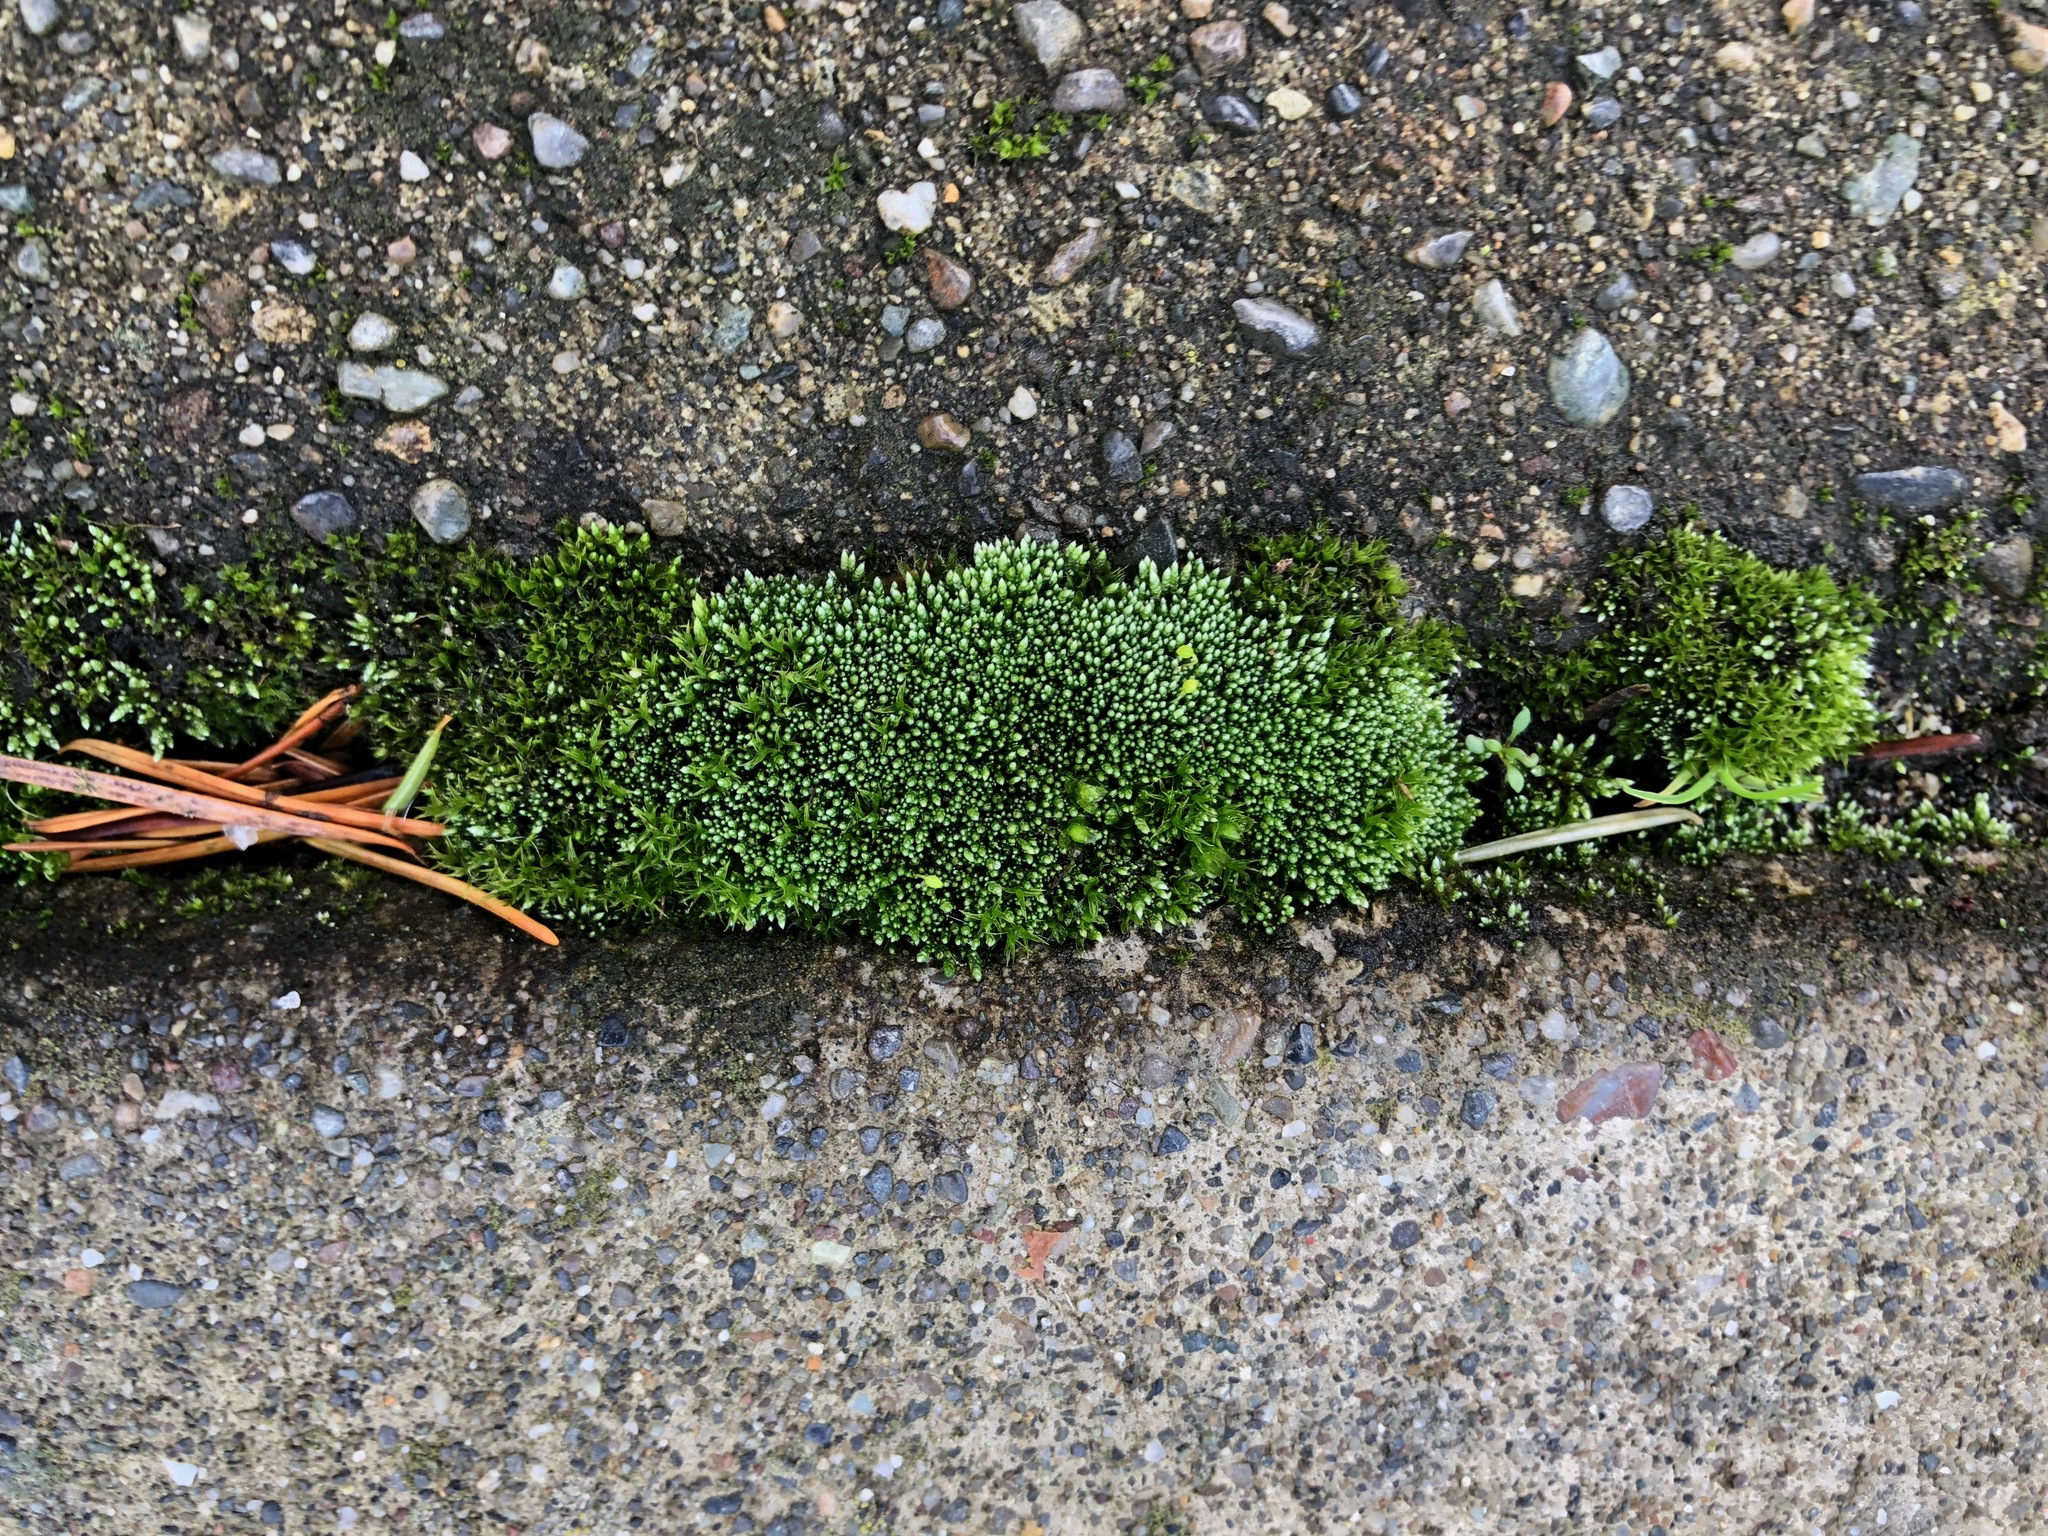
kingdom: Plantae
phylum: Bryophyta
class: Bryopsida
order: Bryales
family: Bryaceae
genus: Bryum
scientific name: Bryum argenteum
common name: Silver-moss
